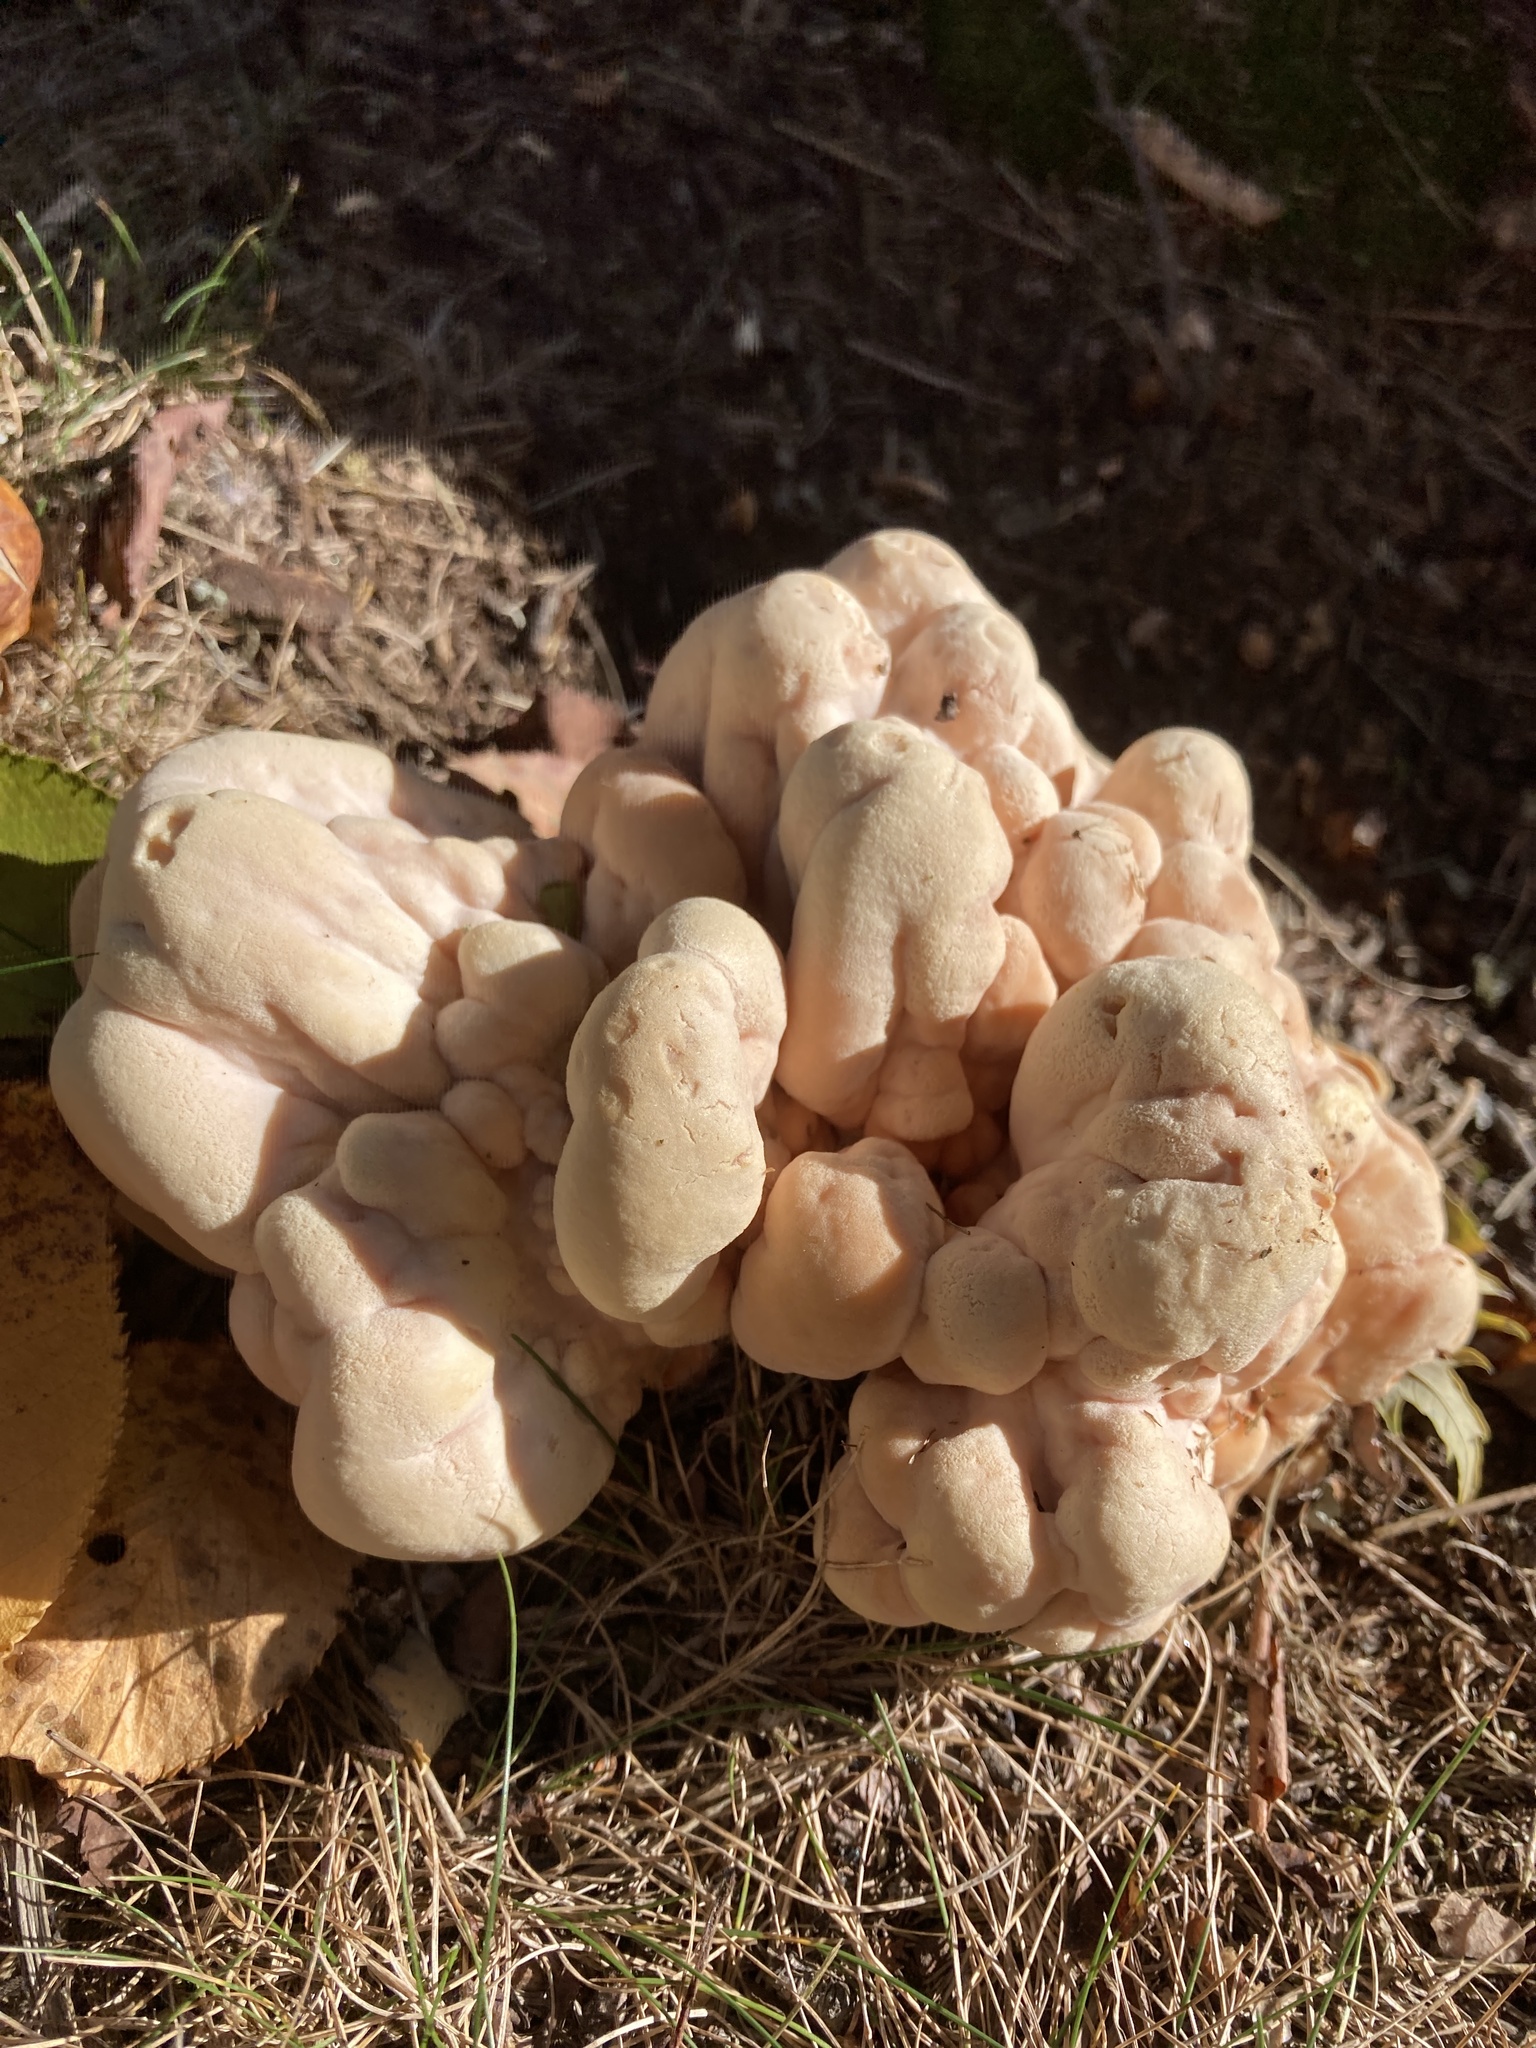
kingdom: Fungi
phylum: Basidiomycota
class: Agaricomycetes
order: Polyporales
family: Laetiporaceae
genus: Laetiporus
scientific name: Laetiporus sulphureus
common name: Chicken of the woods
